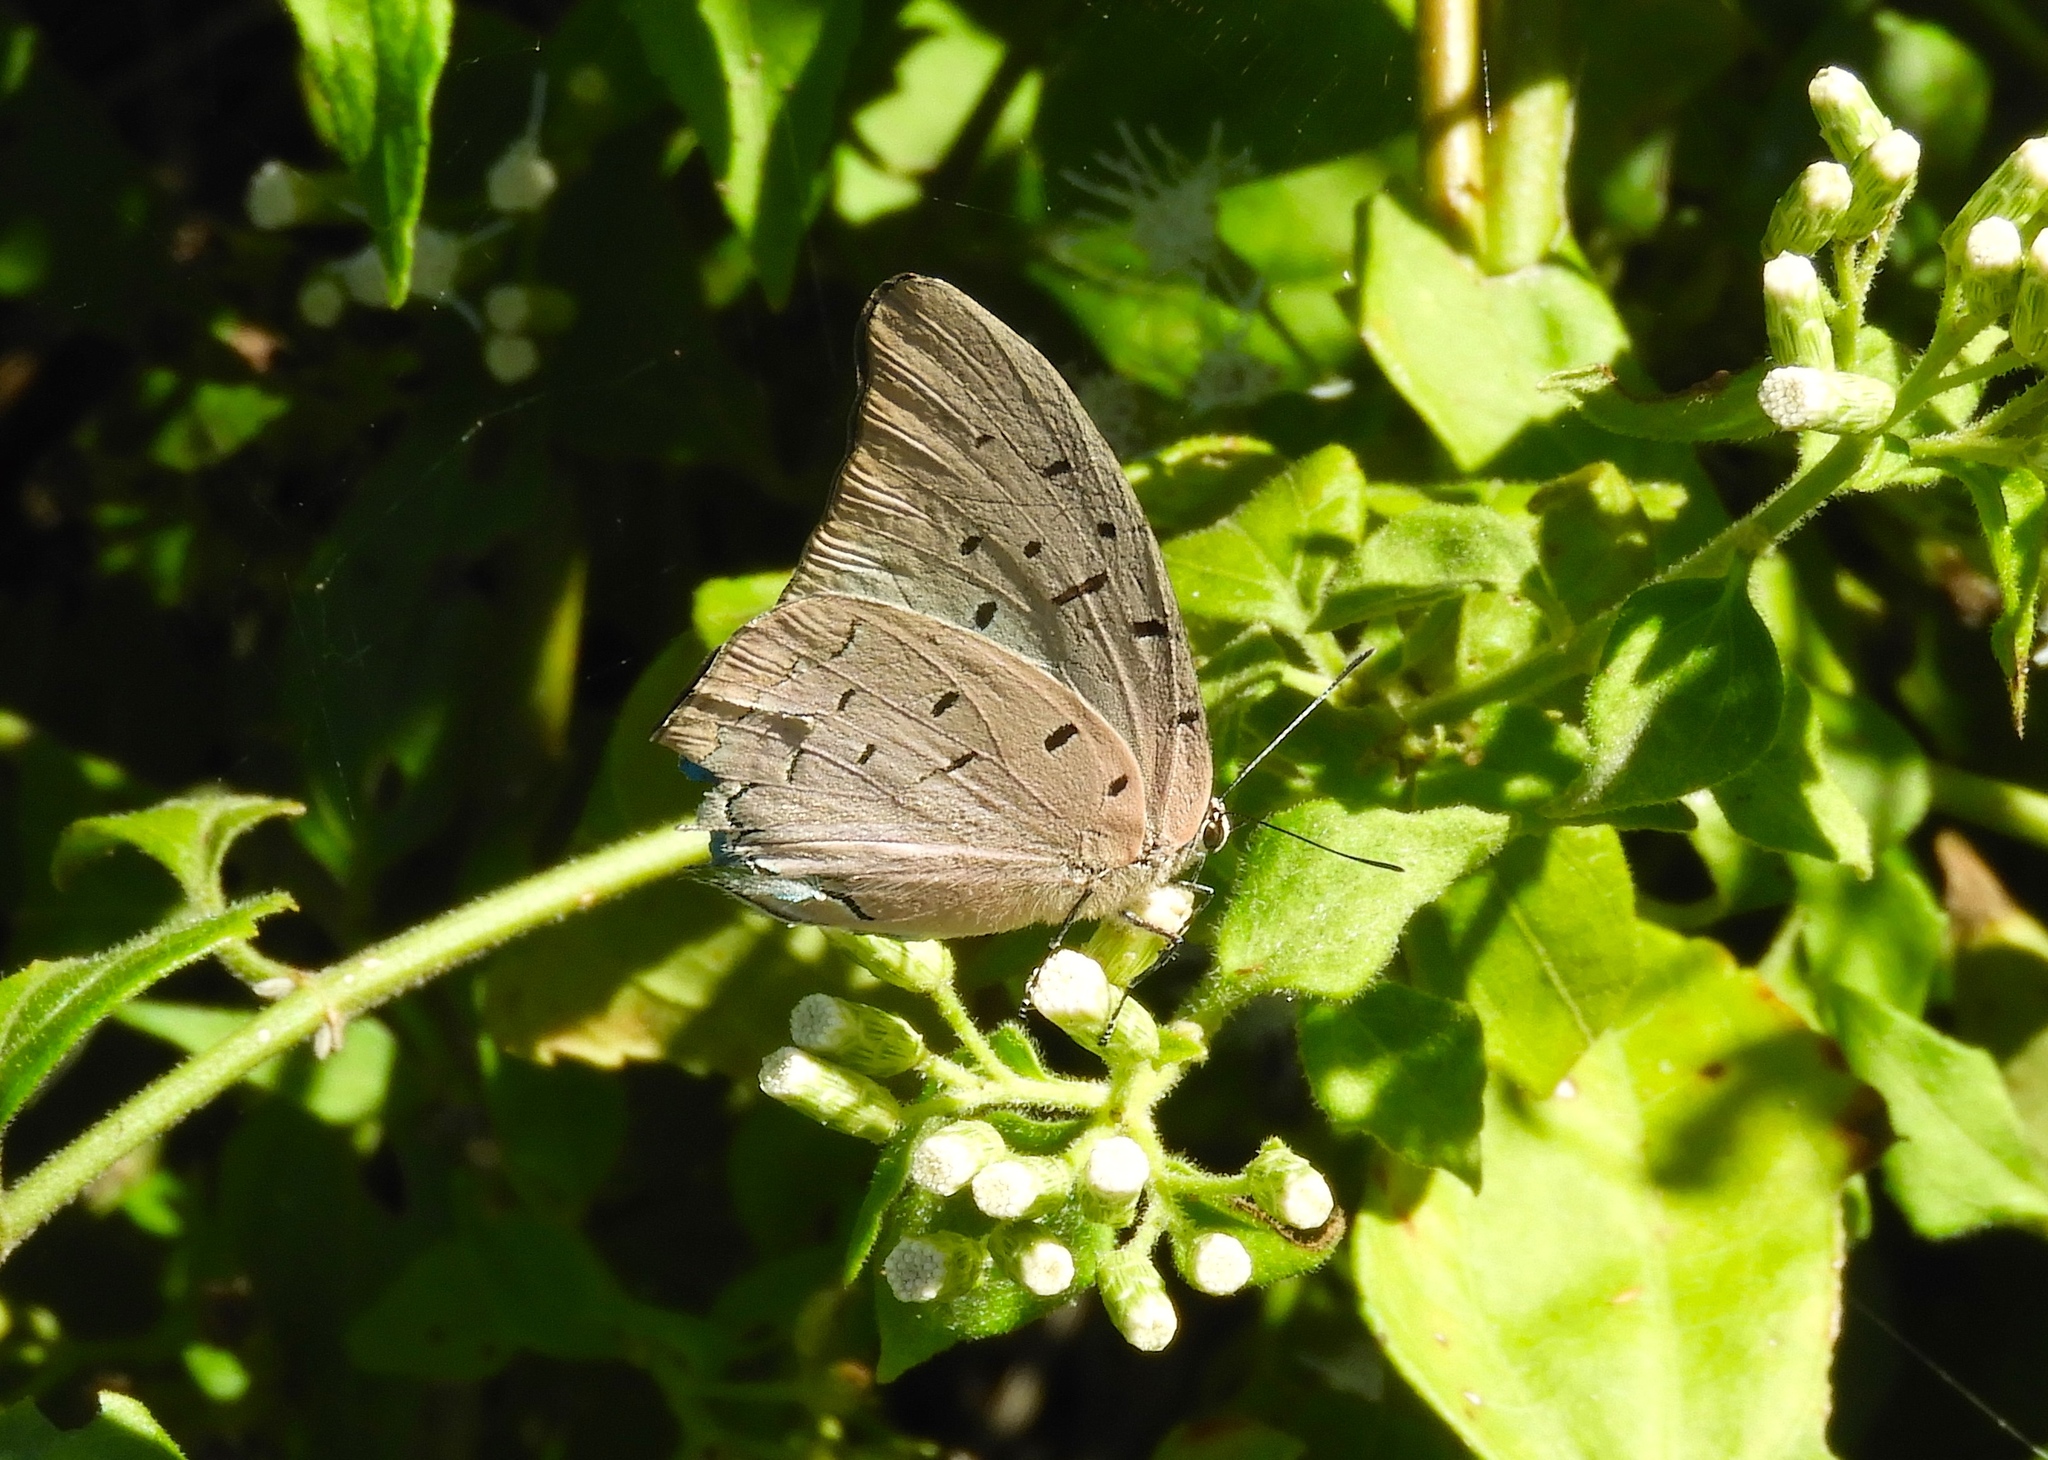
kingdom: Animalia
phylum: Arthropoda
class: Insecta
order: Lepidoptera
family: Lycaenidae
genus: Pseudolycaena
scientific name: Pseudolycaena damo
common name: Sky-blue hairstreak
